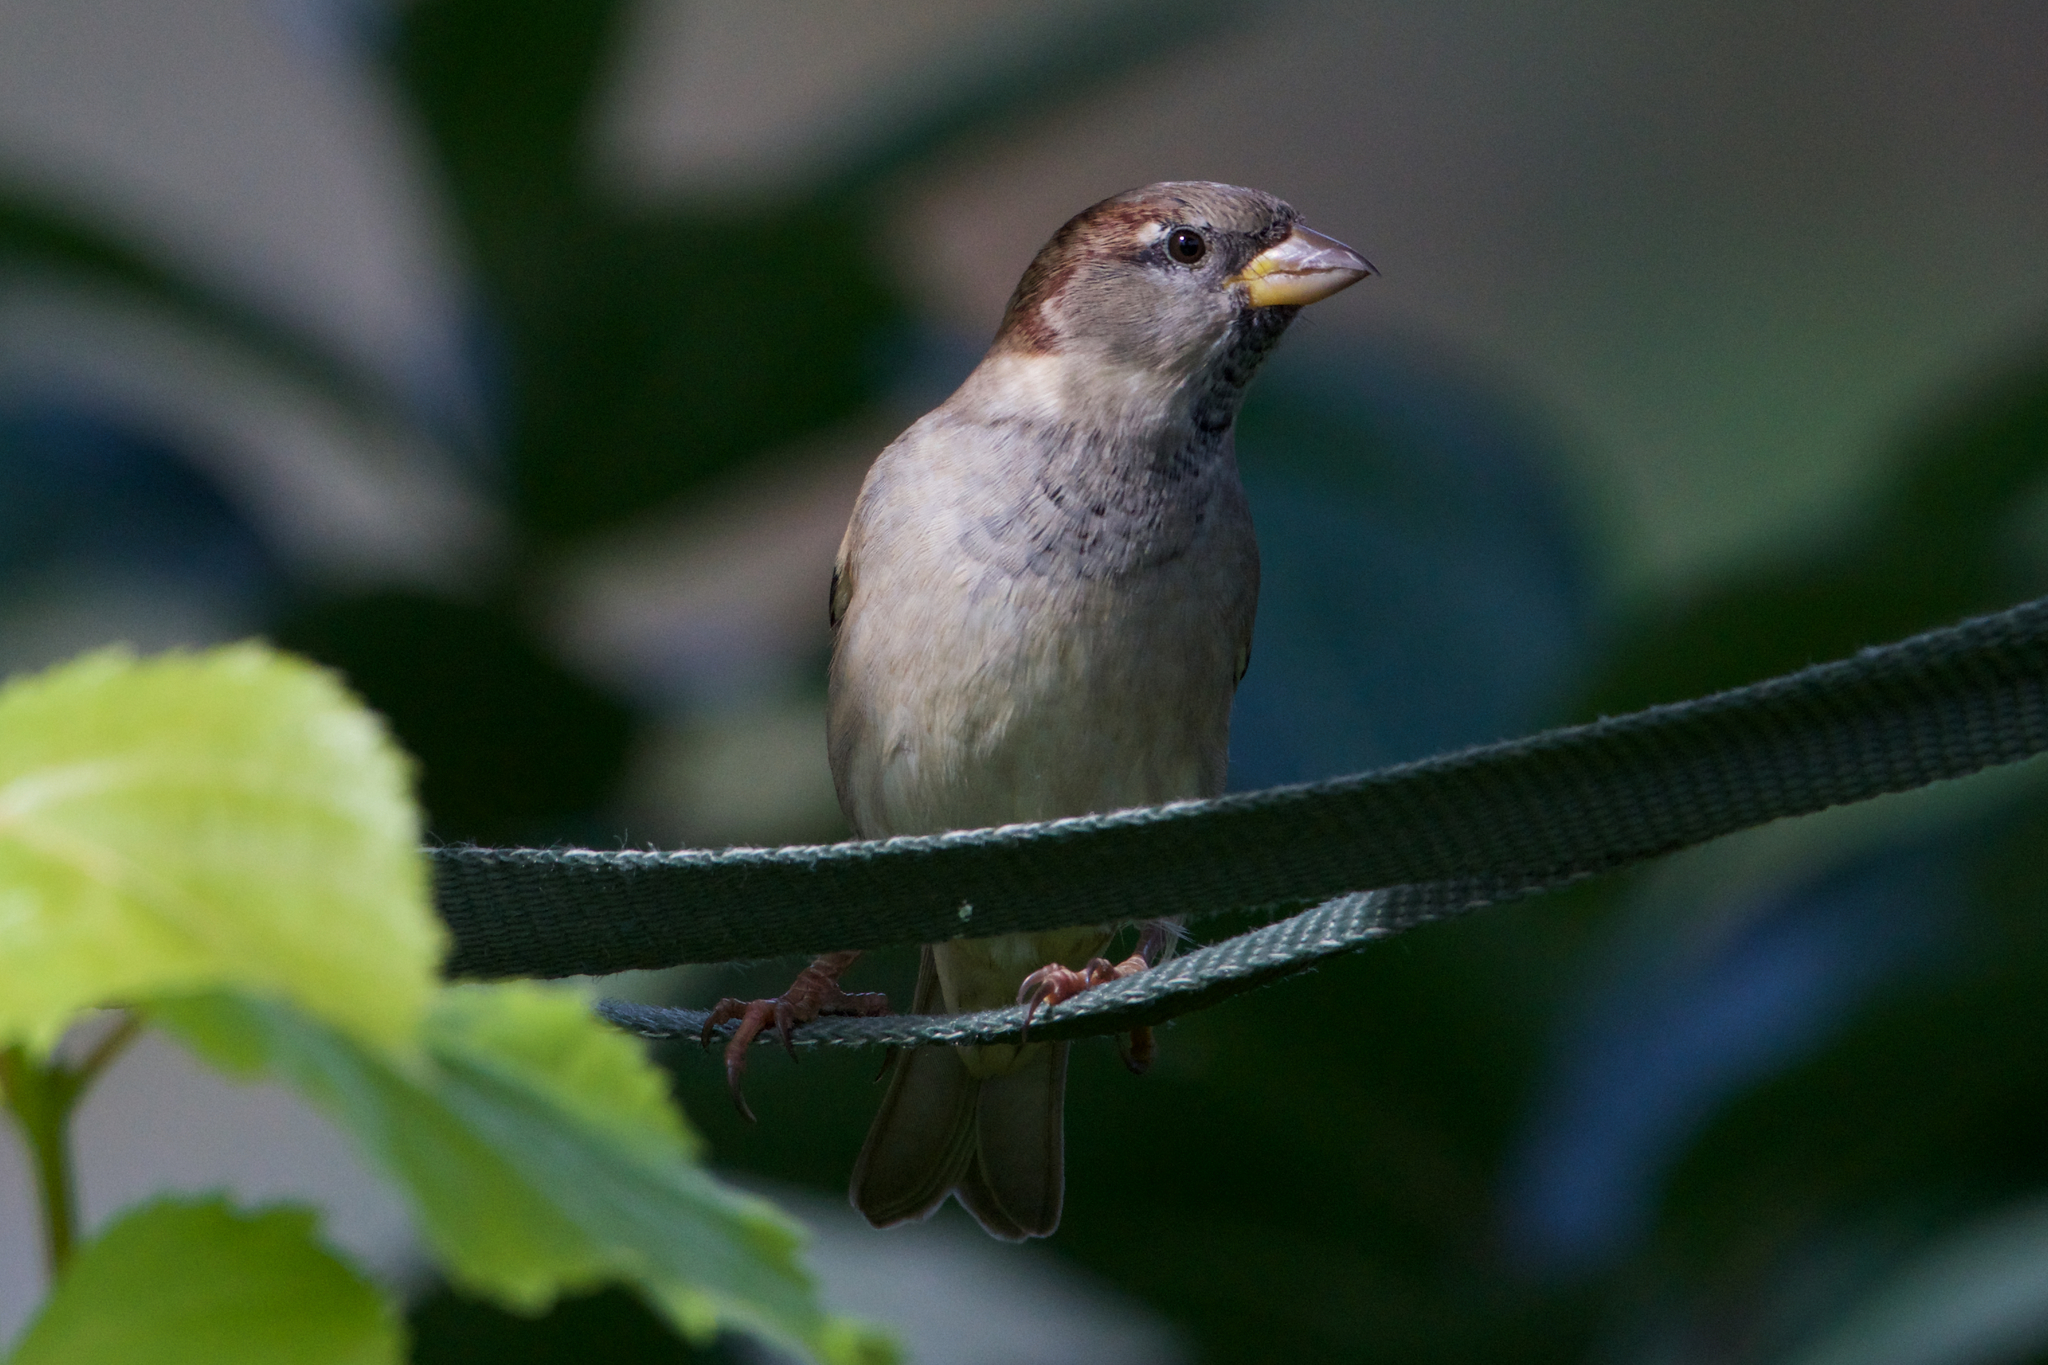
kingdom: Animalia
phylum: Chordata
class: Aves
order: Passeriformes
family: Passeridae
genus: Passer
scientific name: Passer domesticus
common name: House sparrow
